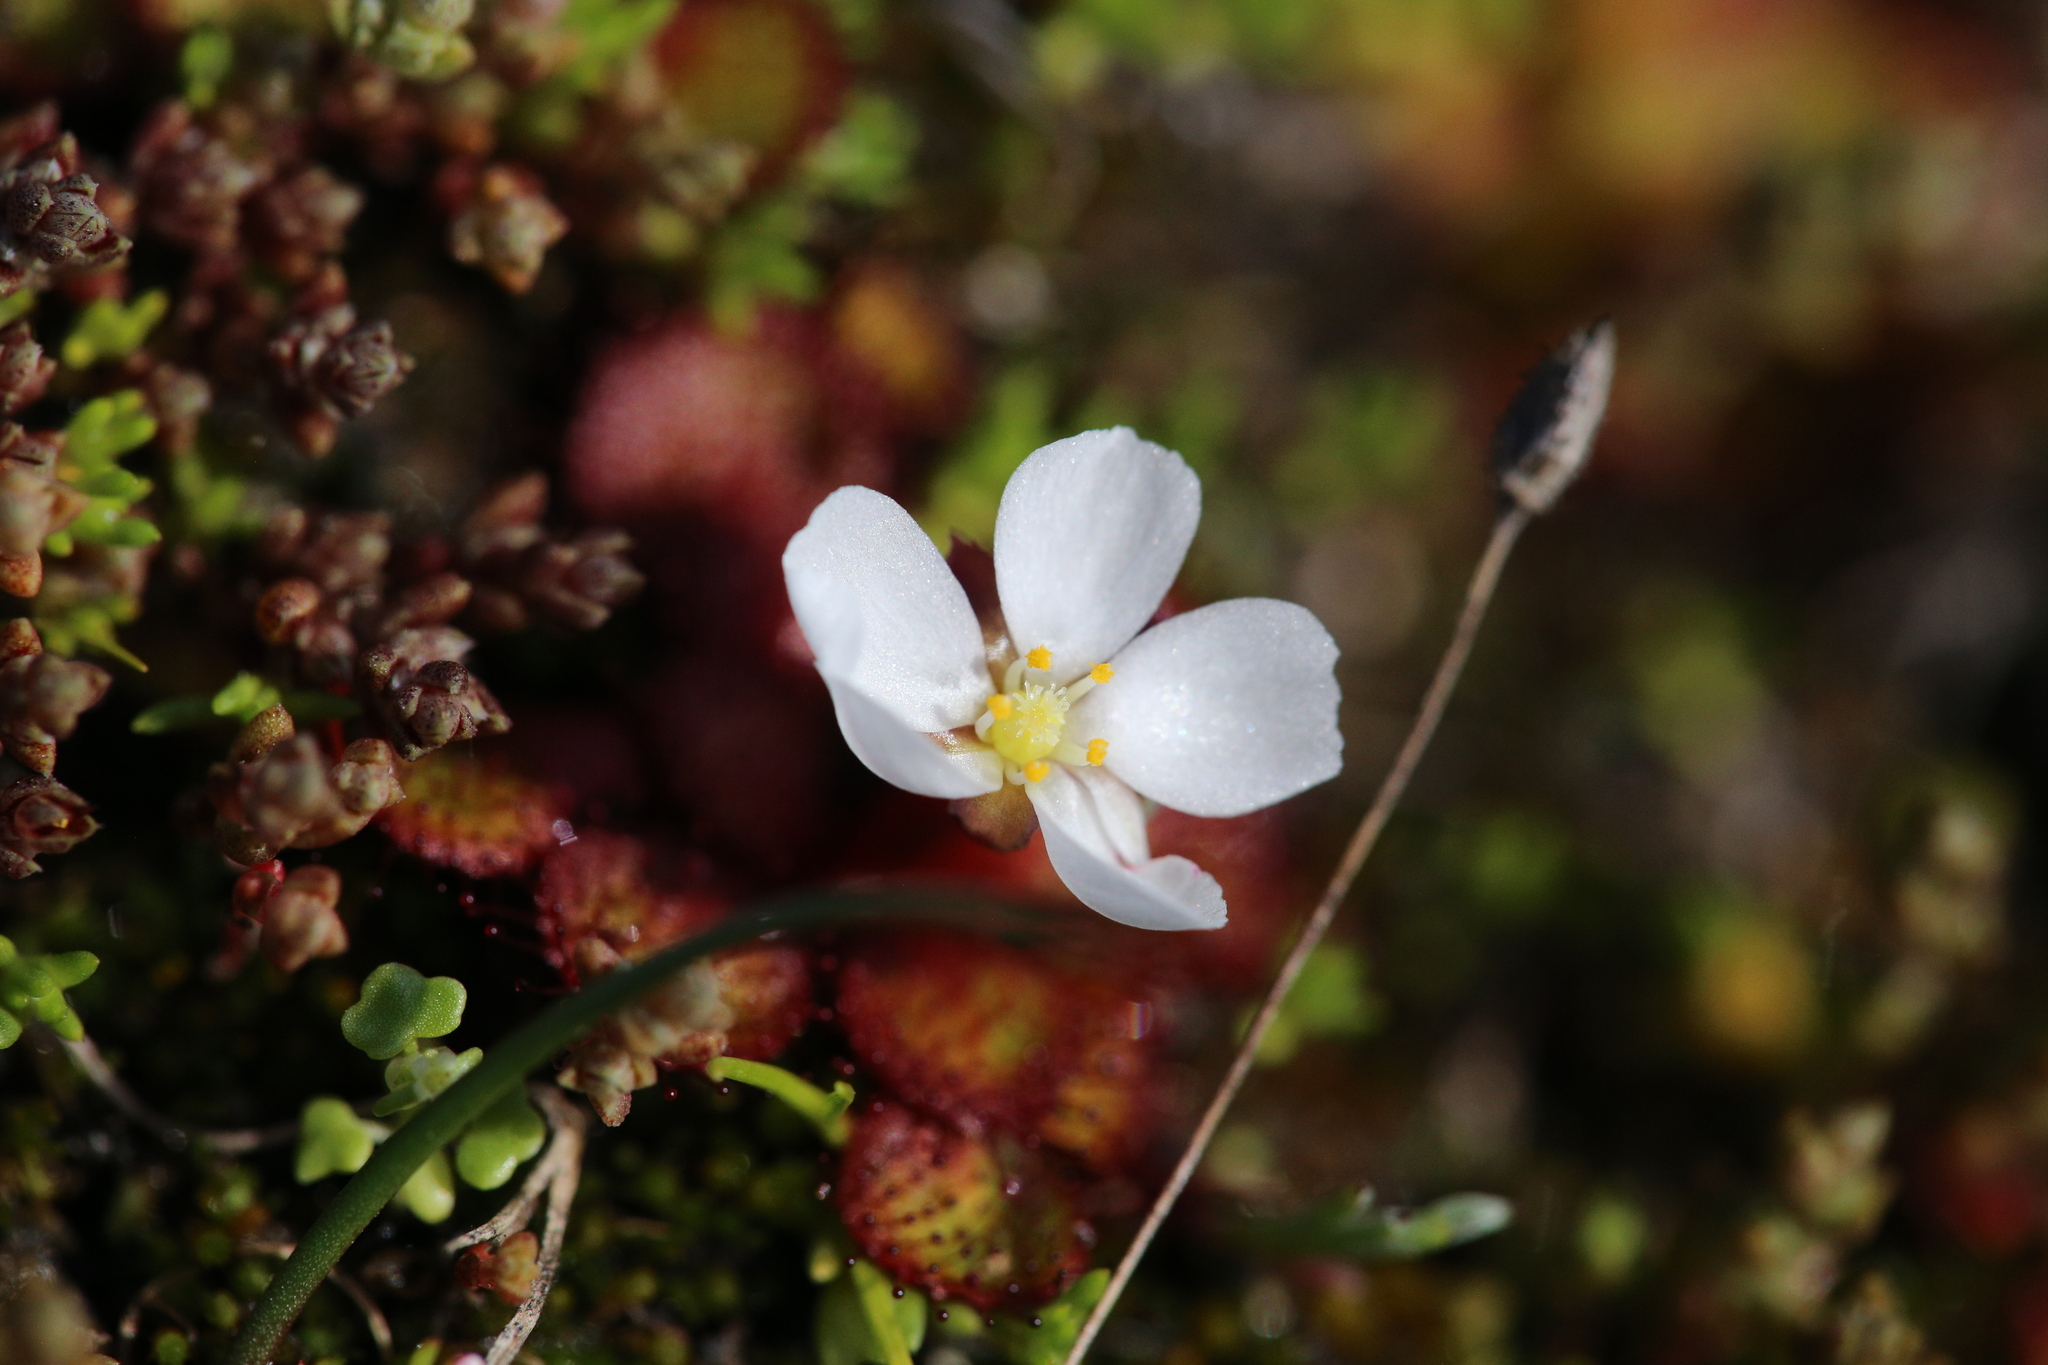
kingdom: Plantae
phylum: Tracheophyta
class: Magnoliopsida
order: Caryophyllales
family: Droseraceae
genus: Drosera
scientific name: Drosera lowriei
